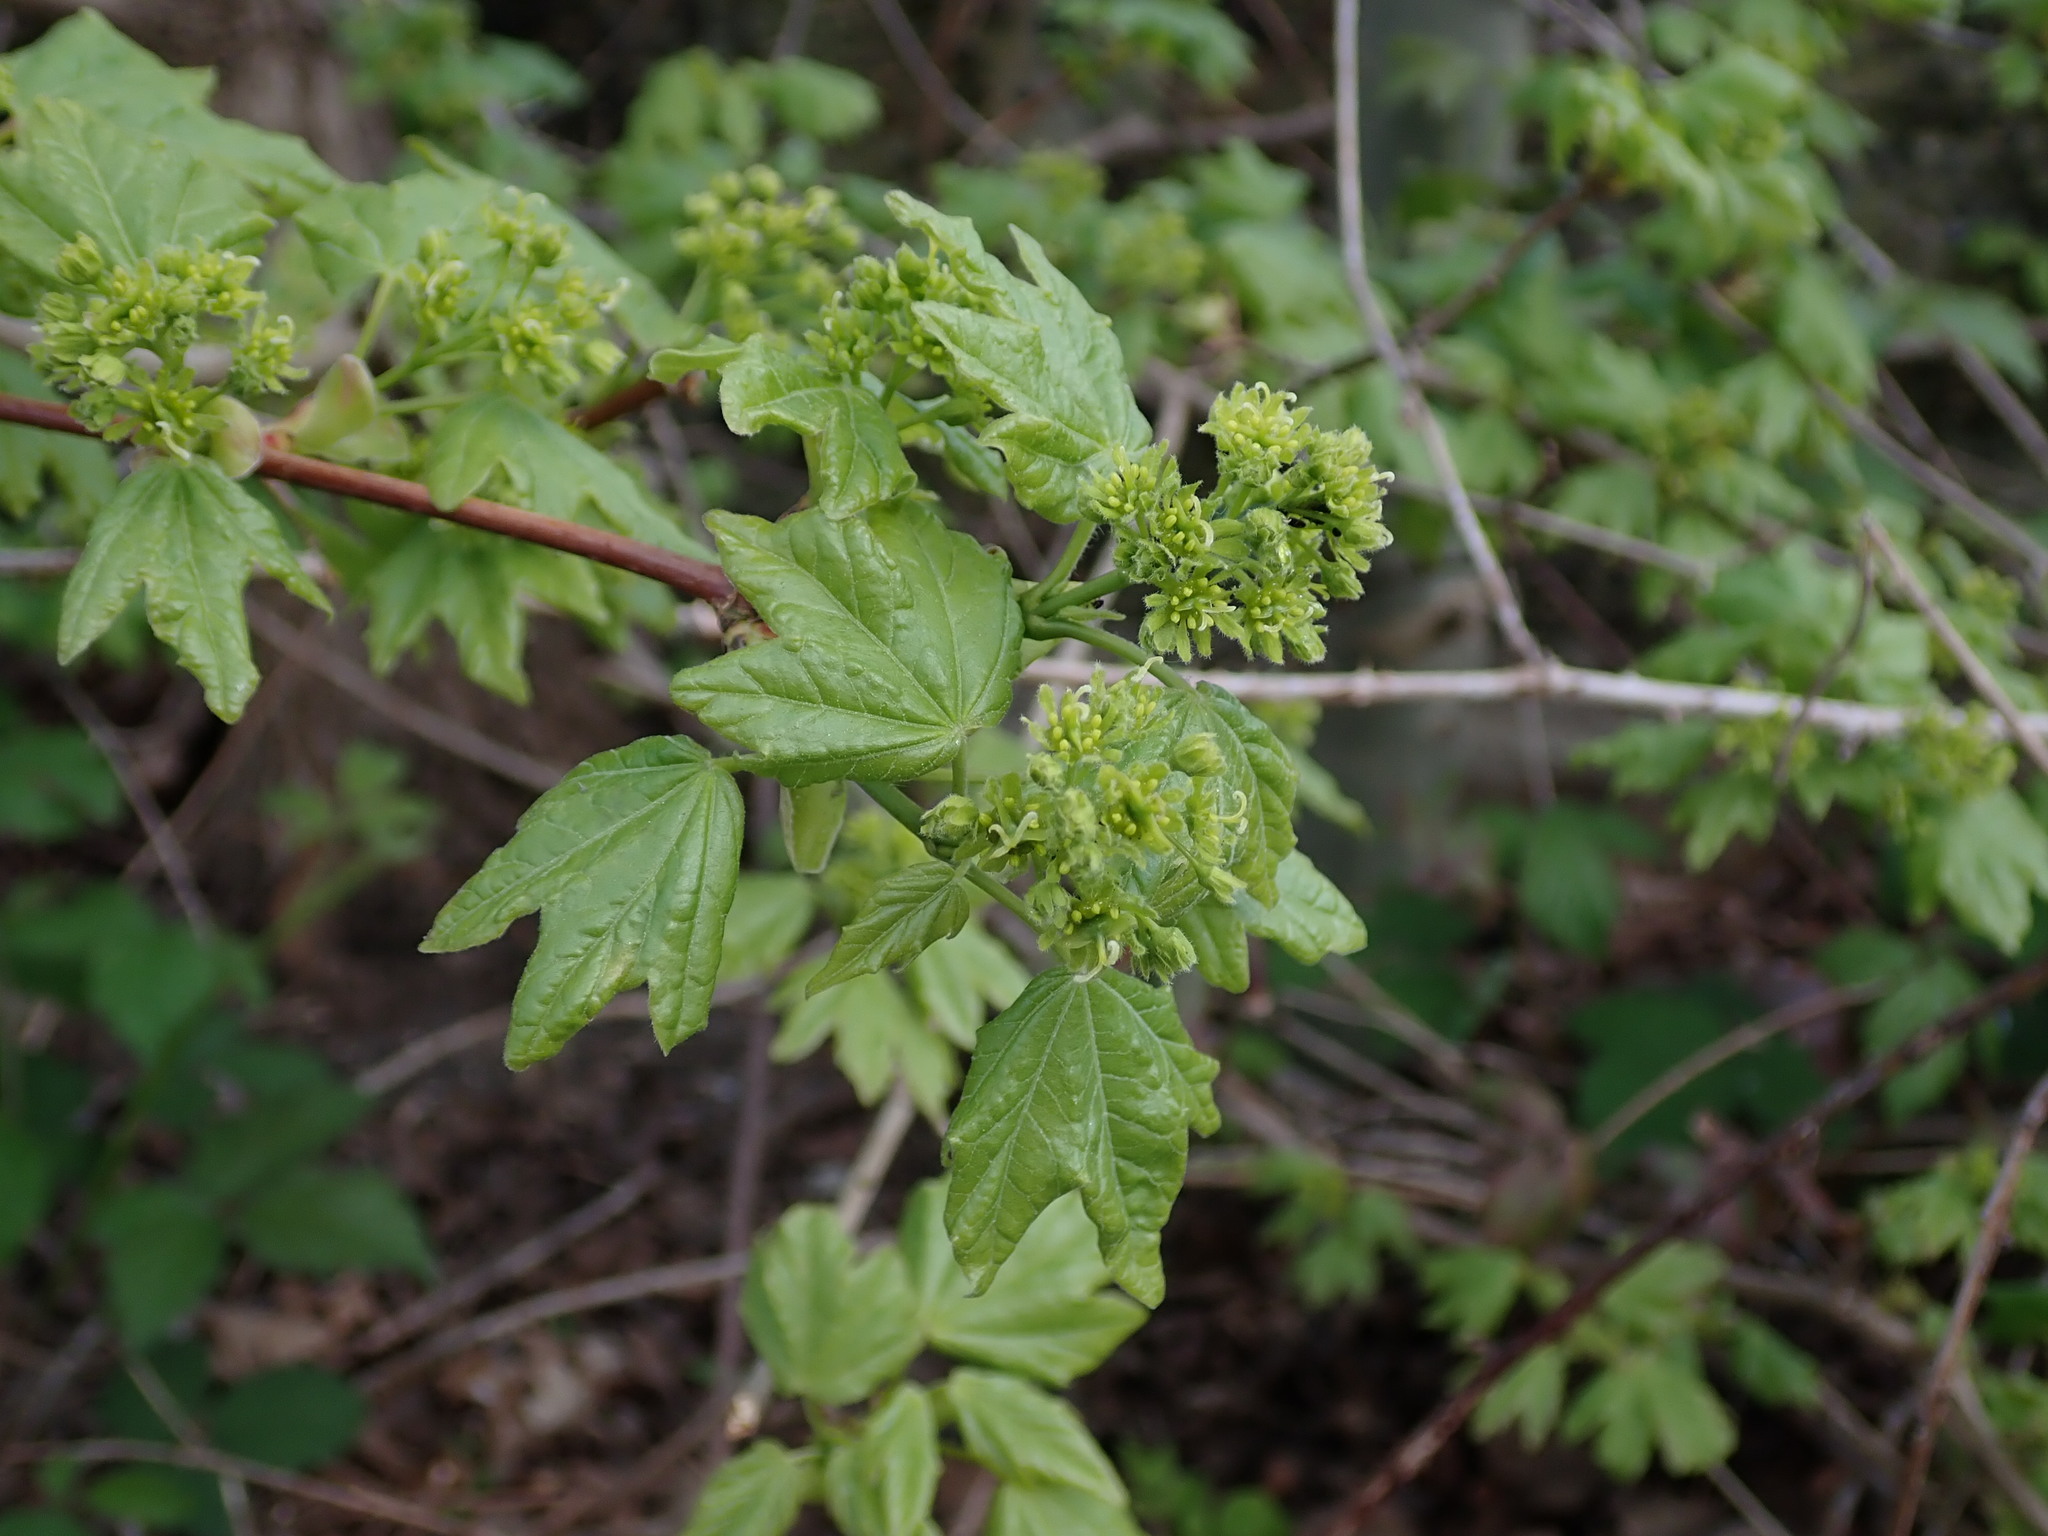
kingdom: Plantae
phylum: Tracheophyta
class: Magnoliopsida
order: Sapindales
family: Sapindaceae
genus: Acer
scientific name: Acer campestre
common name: Field maple
